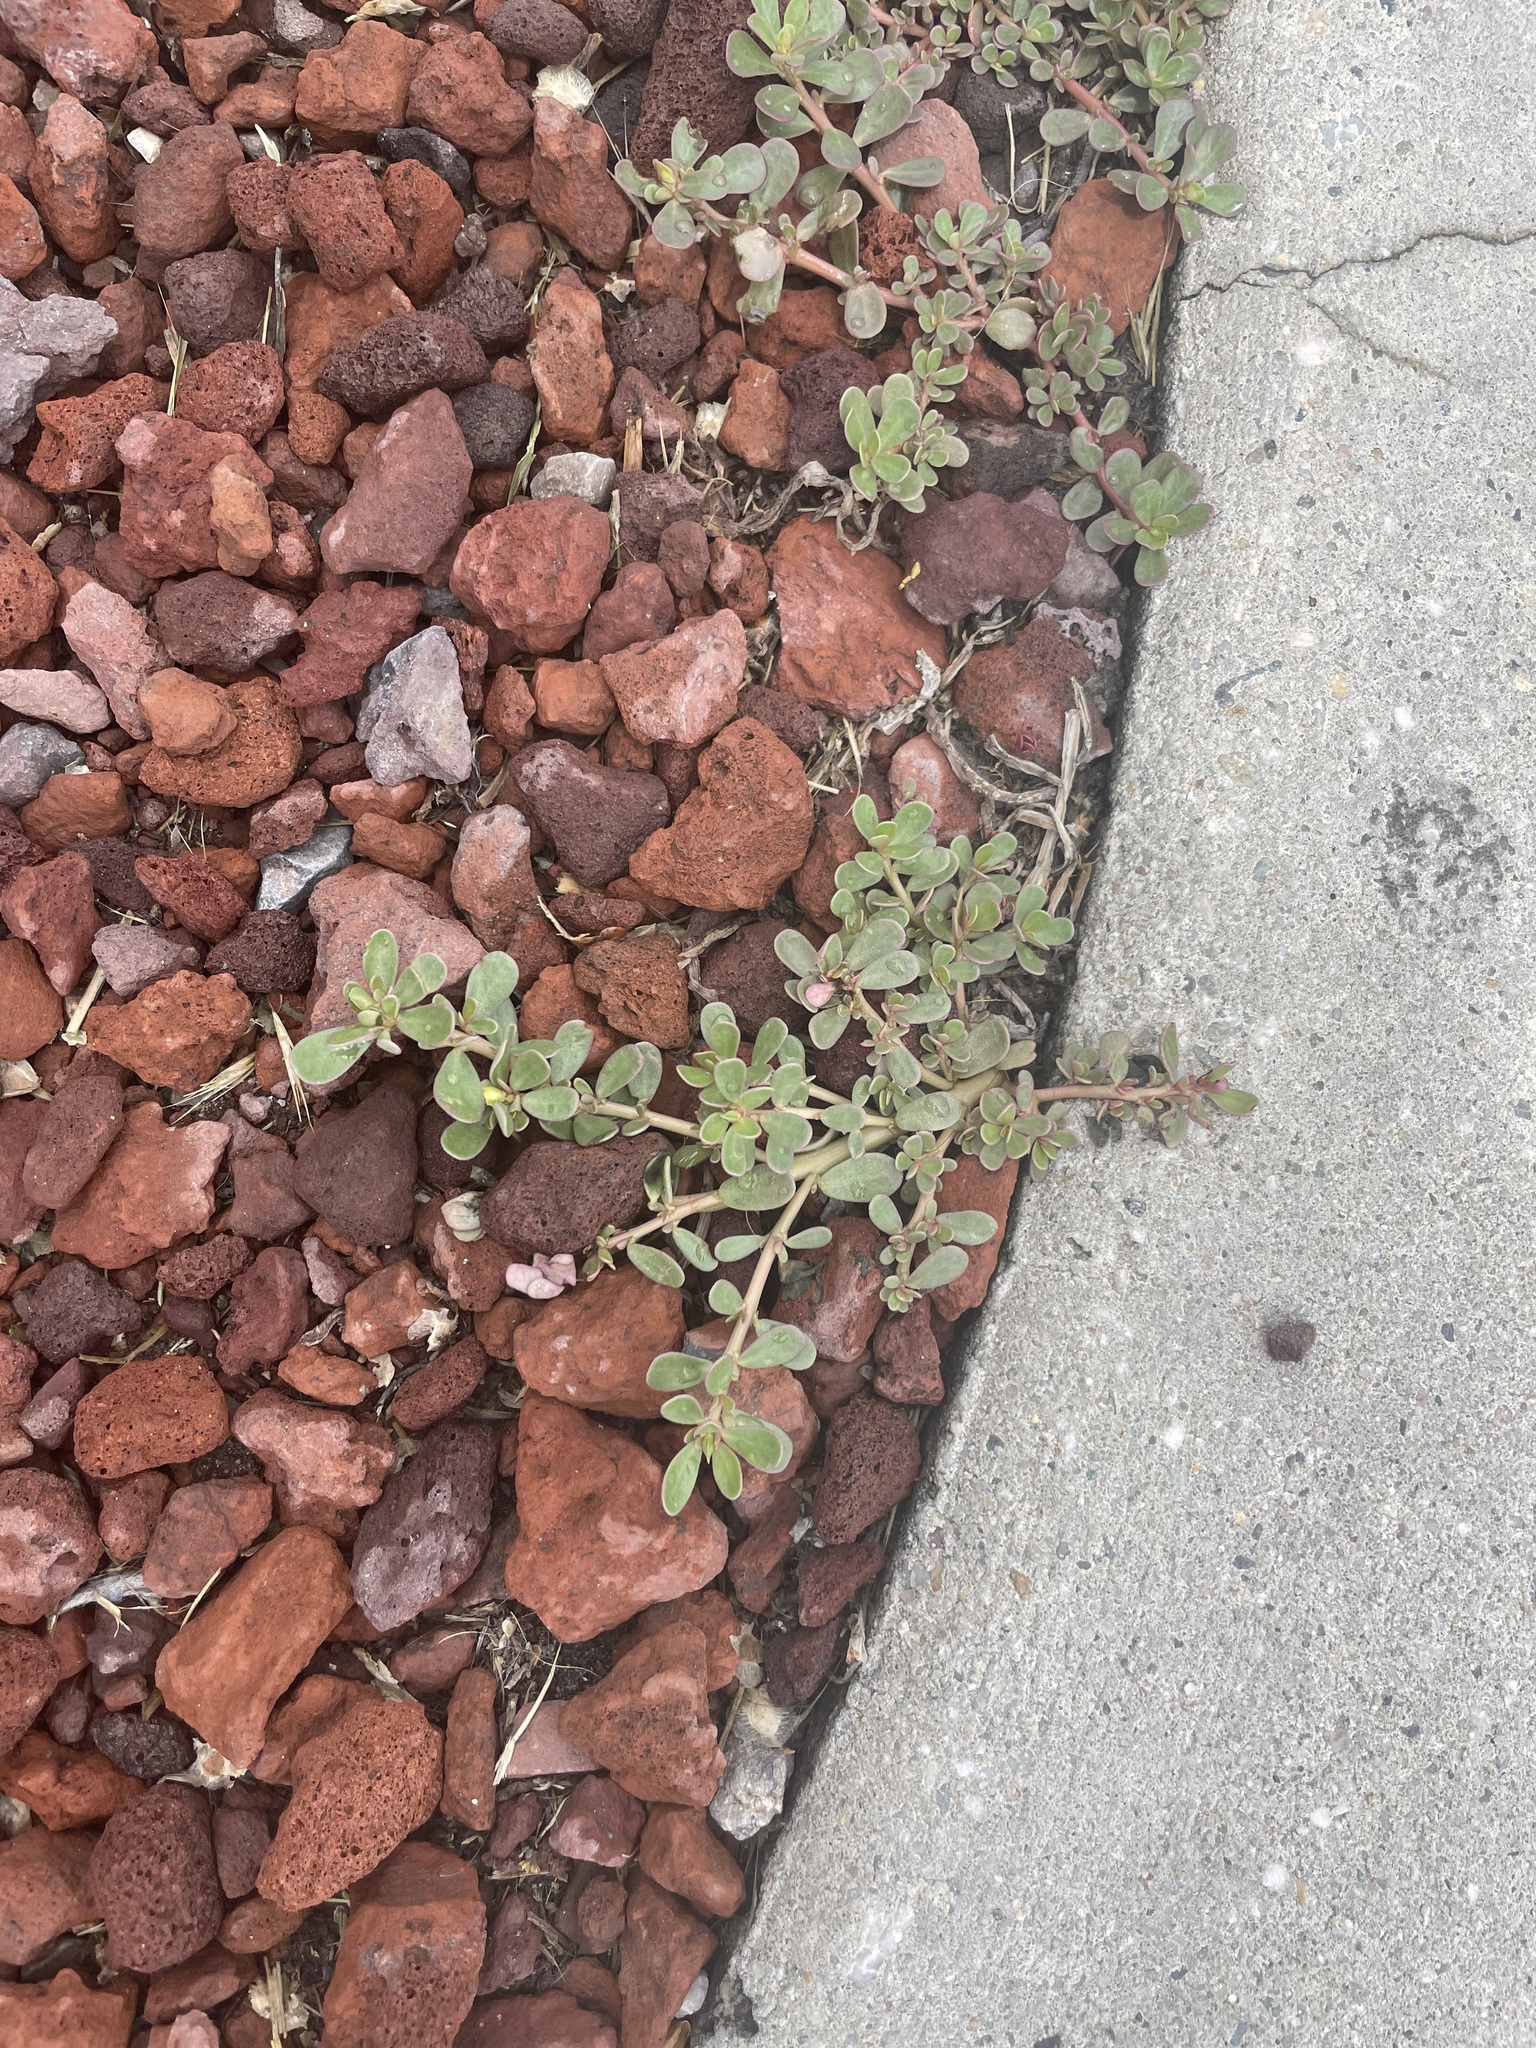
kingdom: Plantae
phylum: Tracheophyta
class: Magnoliopsida
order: Caryophyllales
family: Portulacaceae
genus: Portulaca
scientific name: Portulaca oleracea
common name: Common purslane
